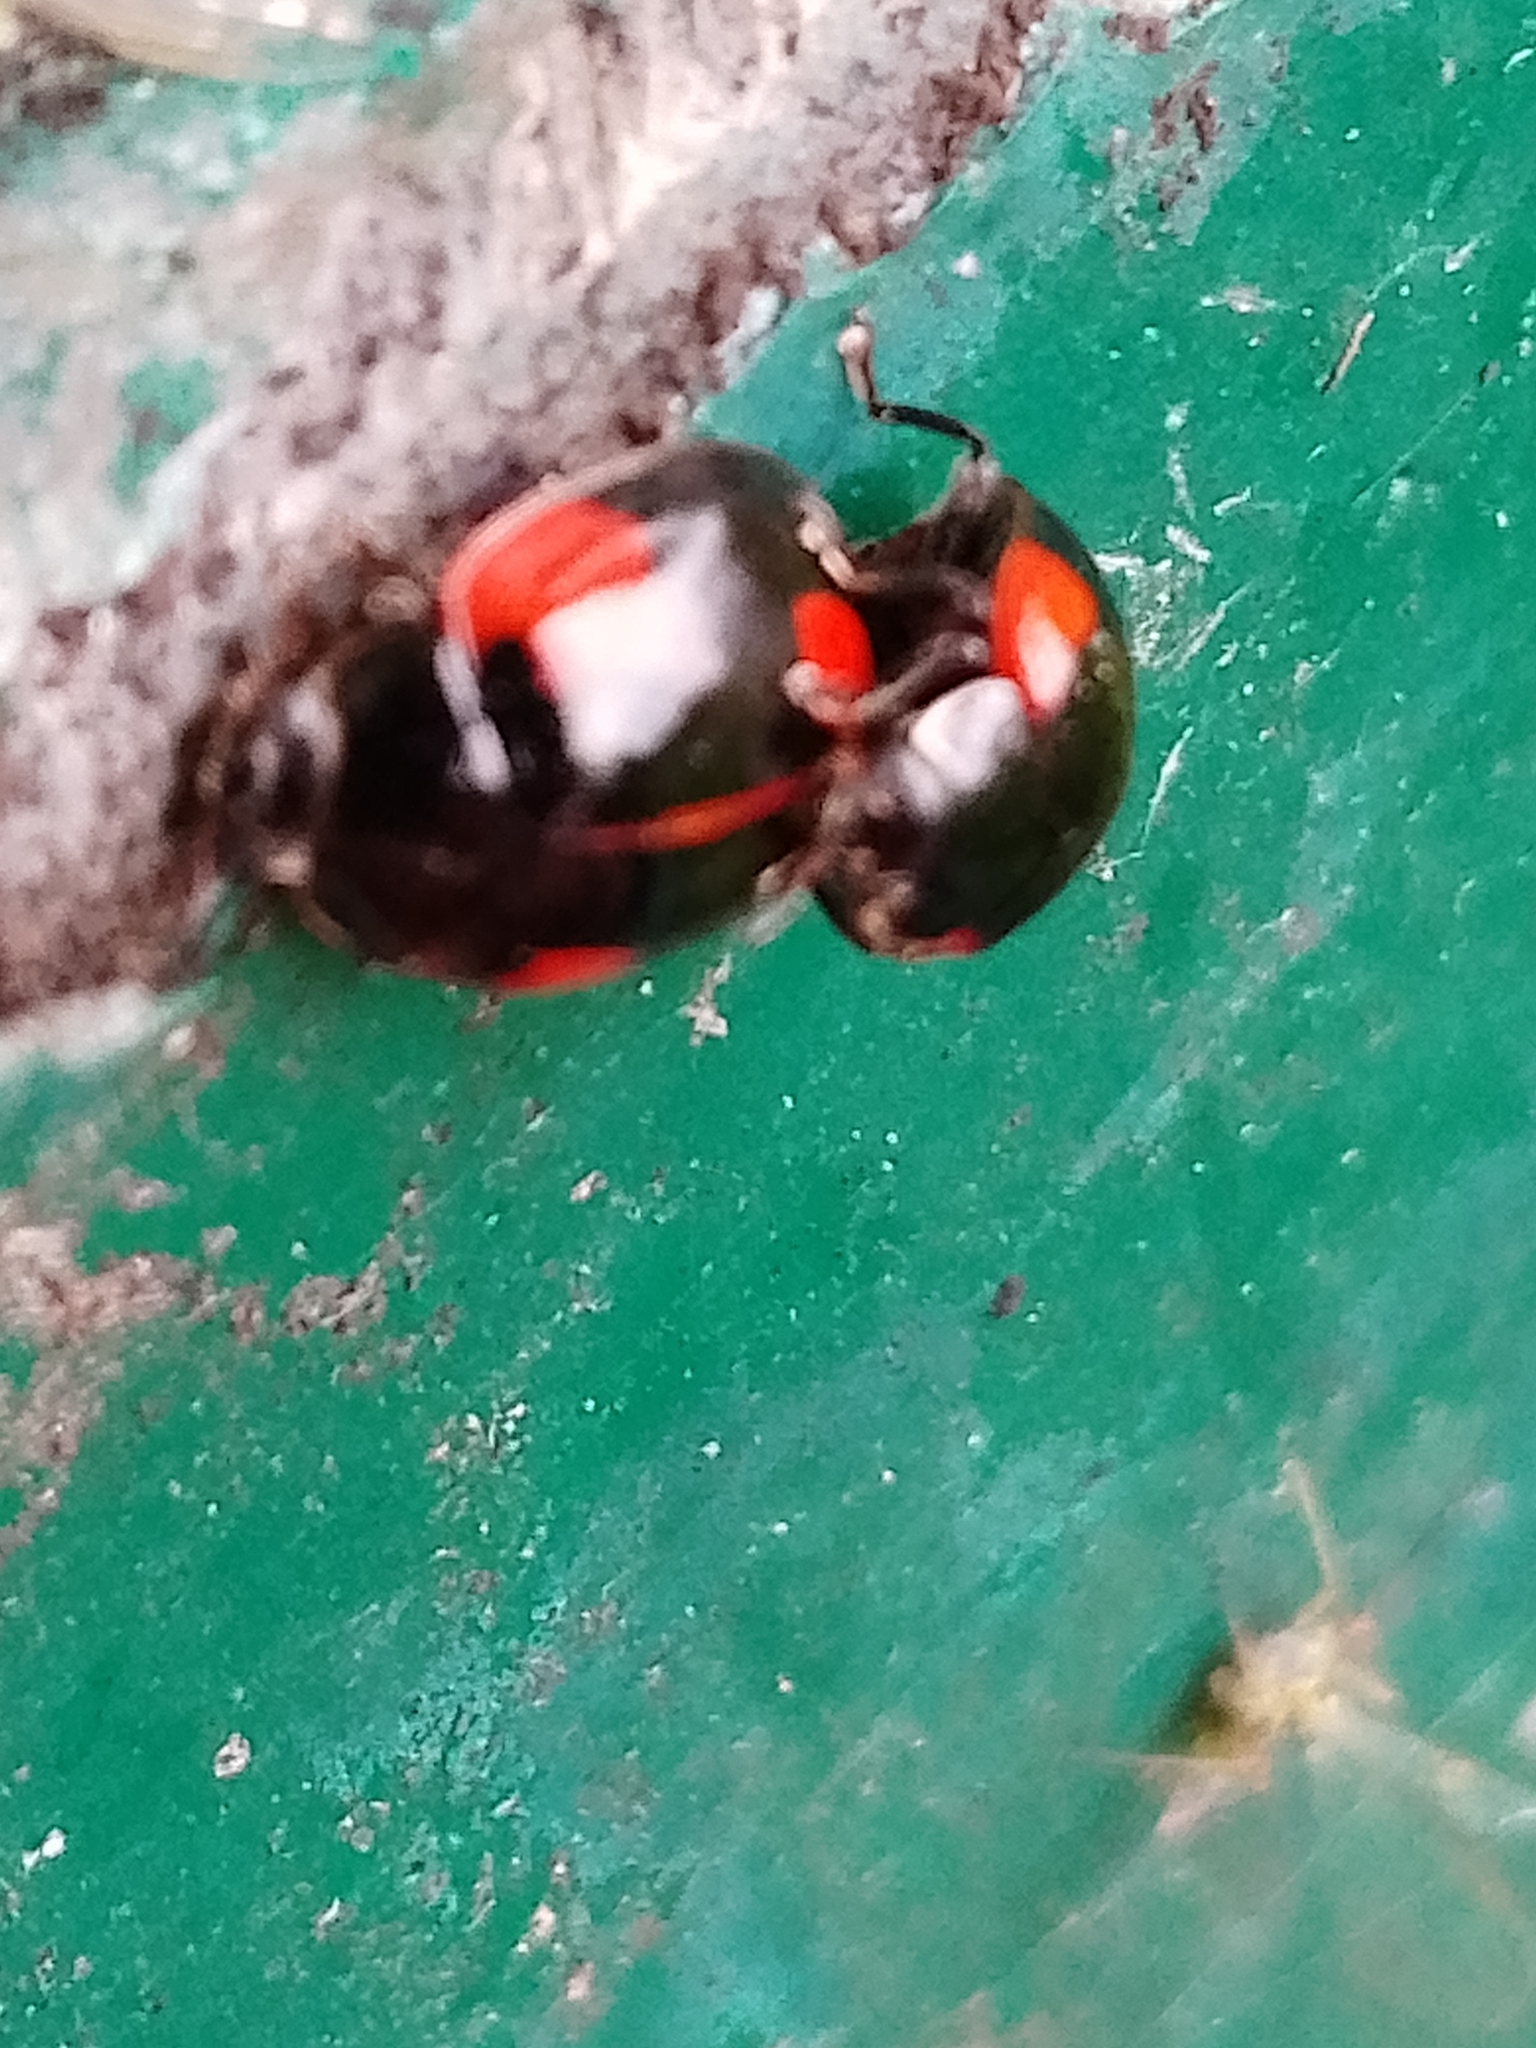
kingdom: Animalia
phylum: Arthropoda
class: Insecta
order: Coleoptera
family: Coccinellidae
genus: Adalia
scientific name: Adalia bipunctata
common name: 2-spot ladybird
